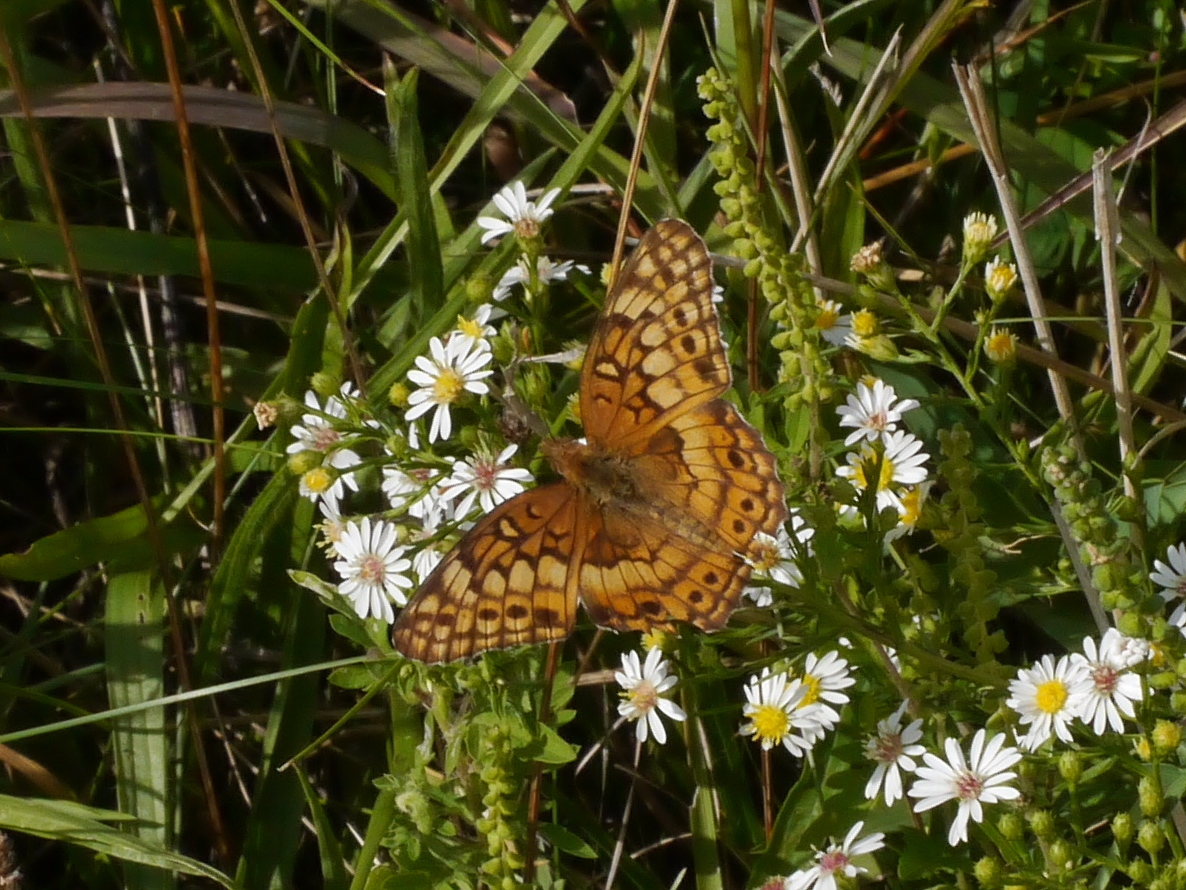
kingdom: Animalia
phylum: Arthropoda
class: Insecta
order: Lepidoptera
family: Nymphalidae
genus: Euptoieta
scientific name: Euptoieta claudia
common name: Variegated fritillary
